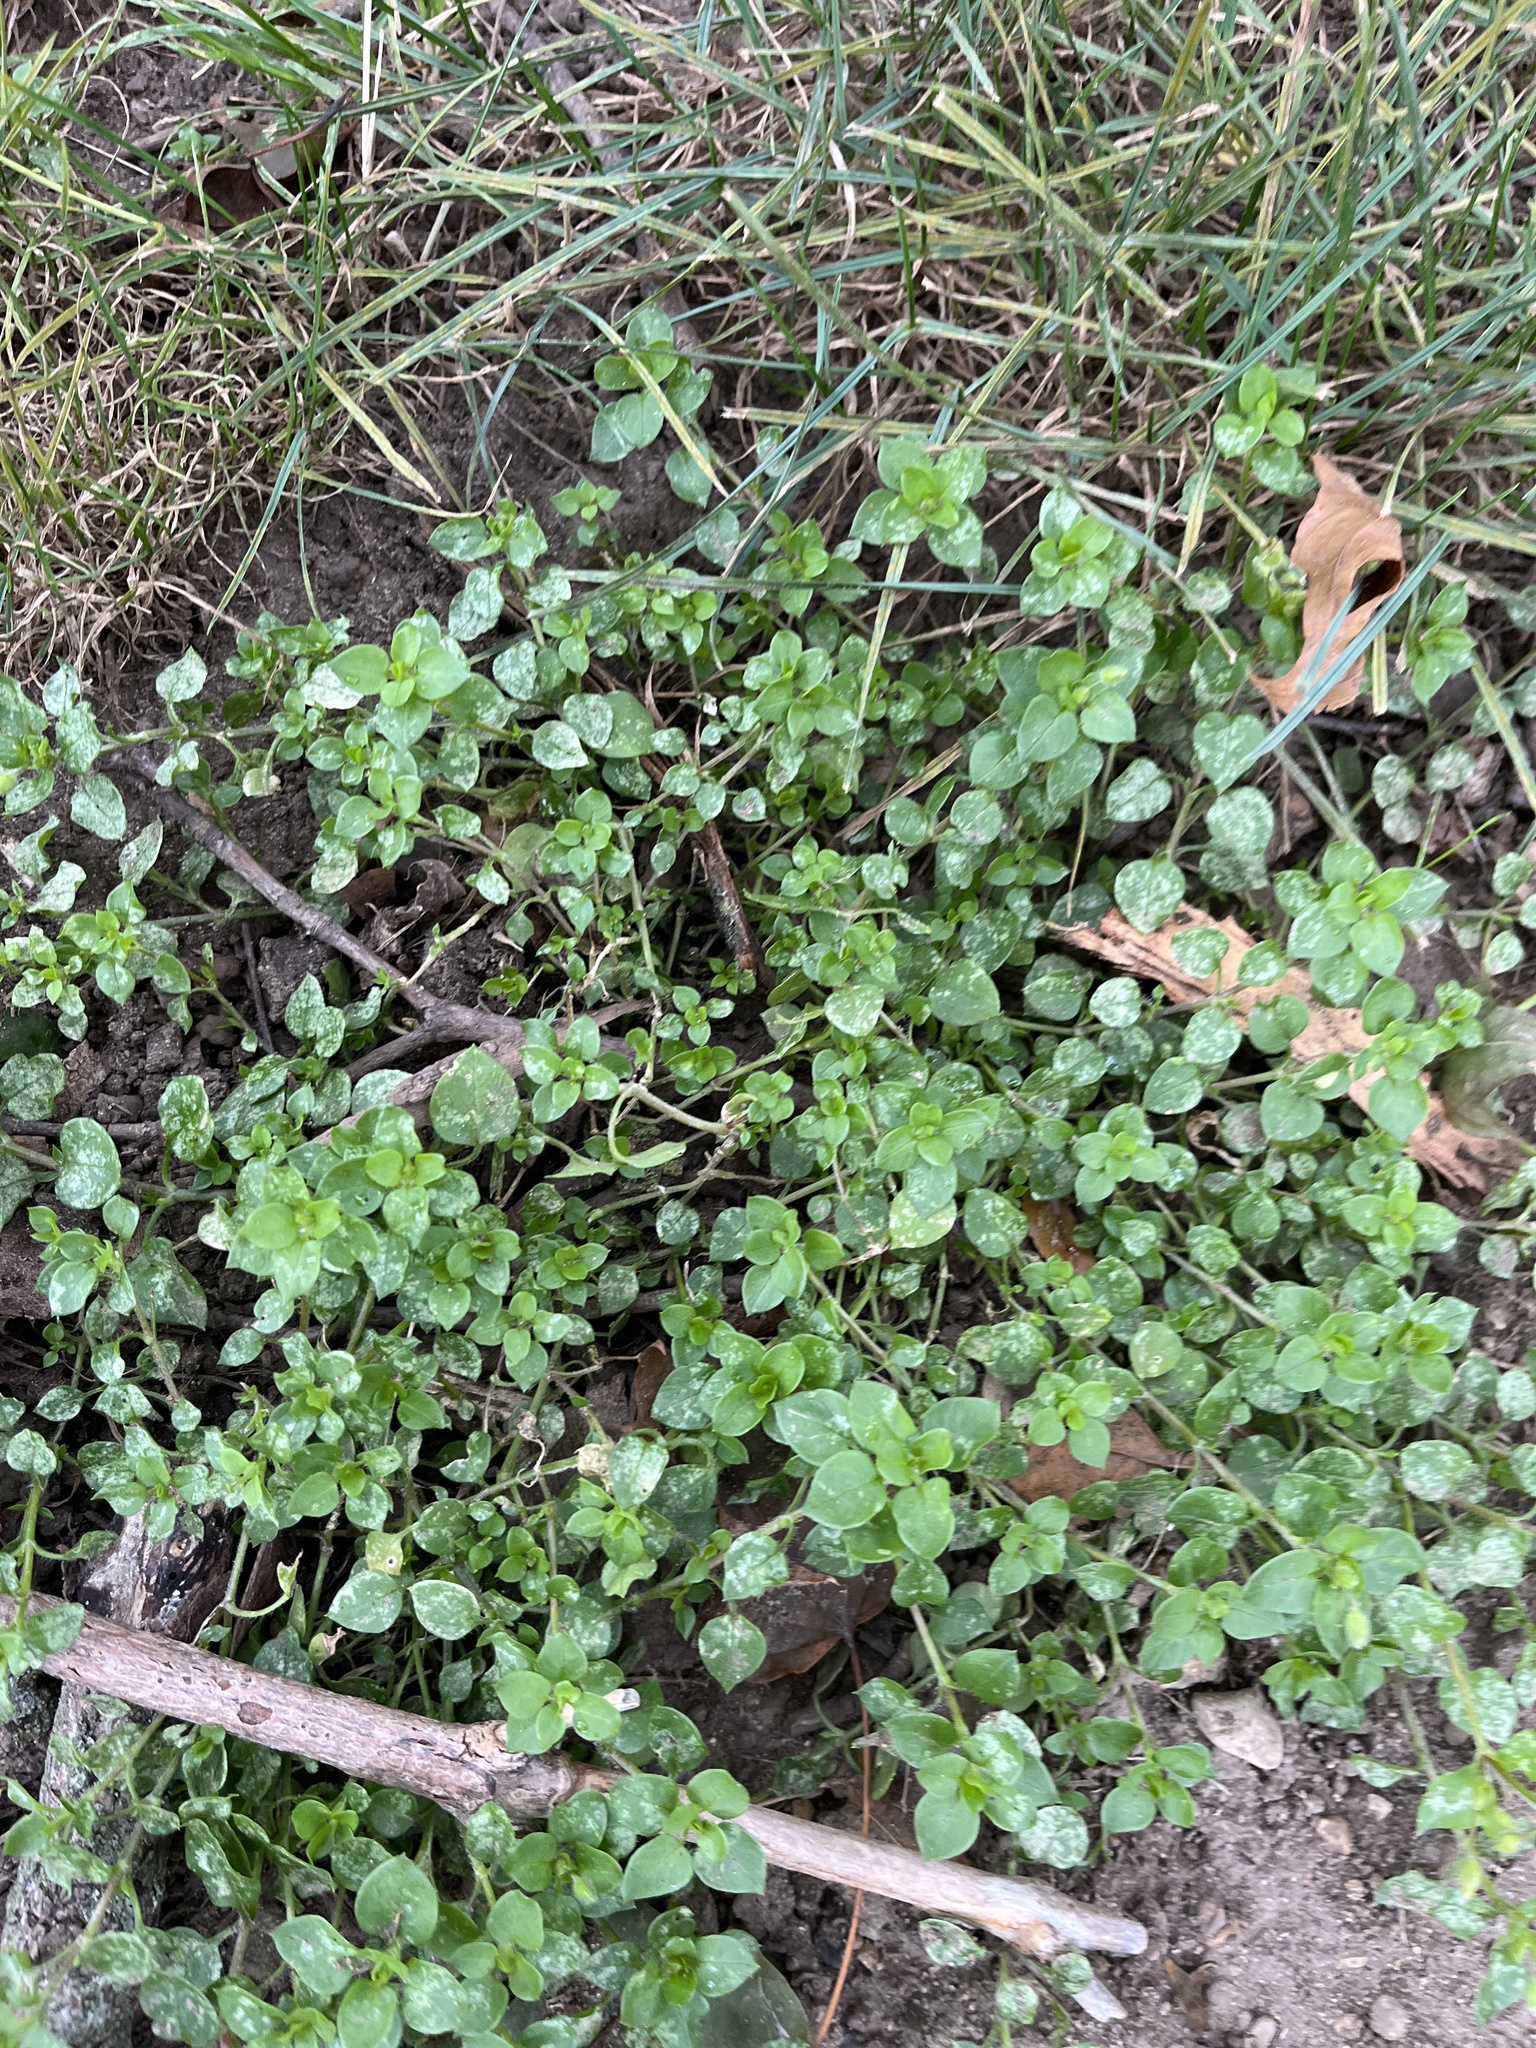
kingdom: Plantae
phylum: Tracheophyta
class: Magnoliopsida
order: Caryophyllales
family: Caryophyllaceae
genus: Stellaria
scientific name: Stellaria media
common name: Common chickweed
